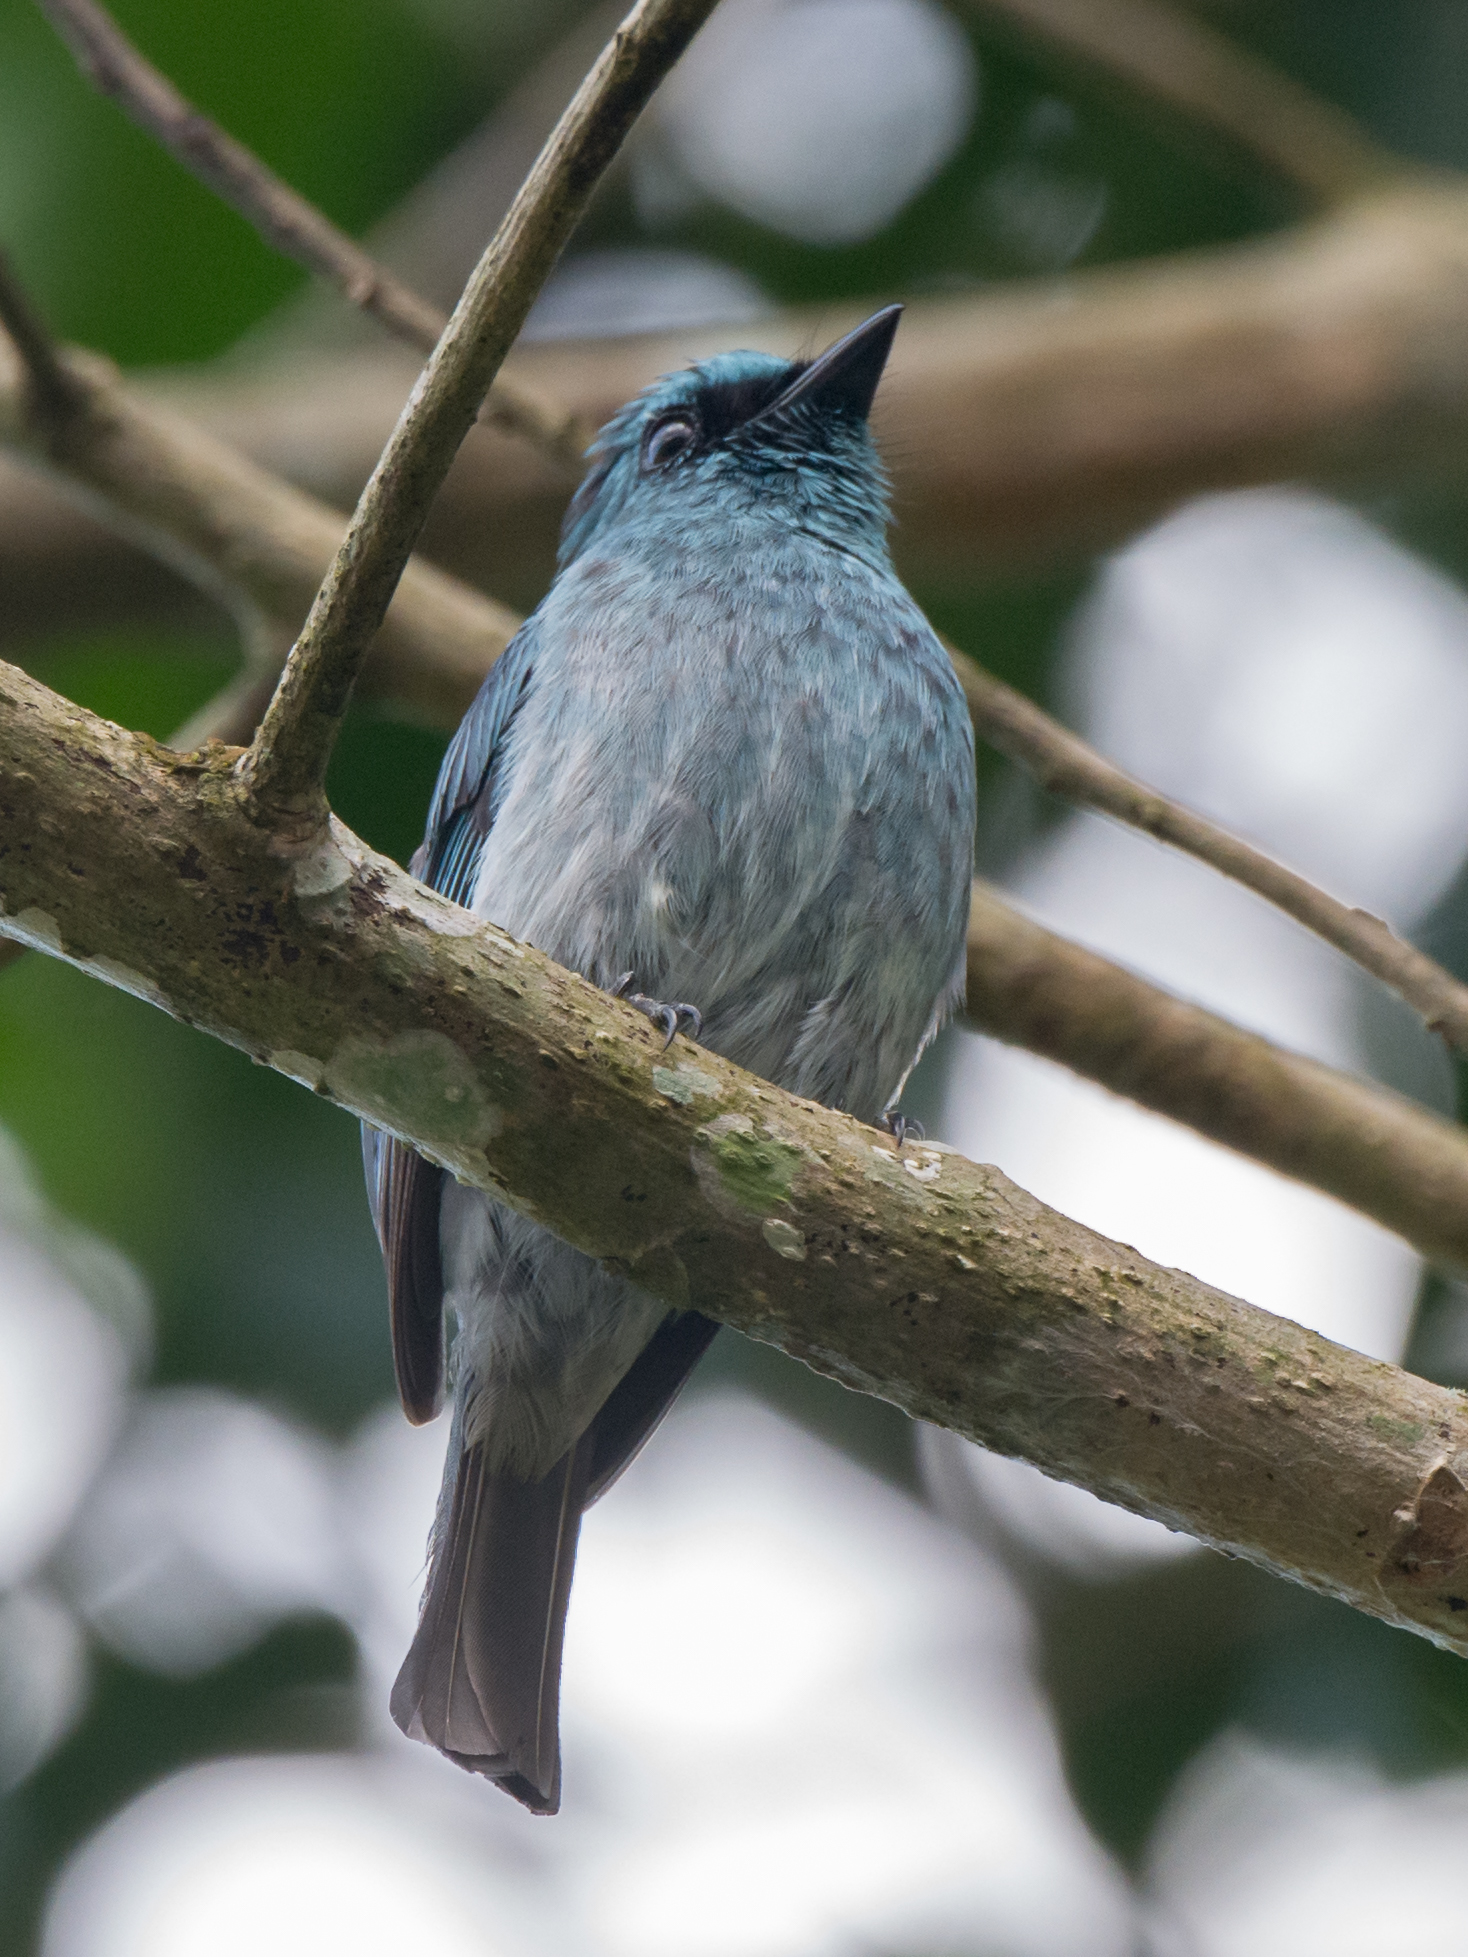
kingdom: Animalia
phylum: Chordata
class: Aves
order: Passeriformes
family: Muscicapidae
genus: Eumyias
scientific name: Eumyias panayensis
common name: Turquoise flycatcher
